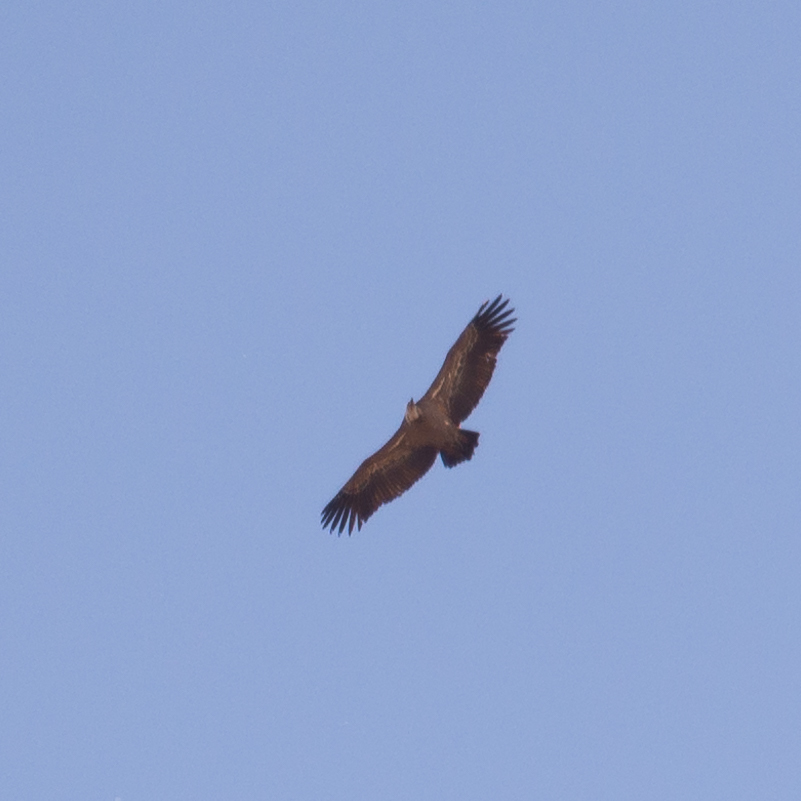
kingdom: Animalia
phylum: Chordata
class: Aves
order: Accipitriformes
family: Accipitridae
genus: Gyps
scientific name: Gyps fulvus
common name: Griffon vulture
